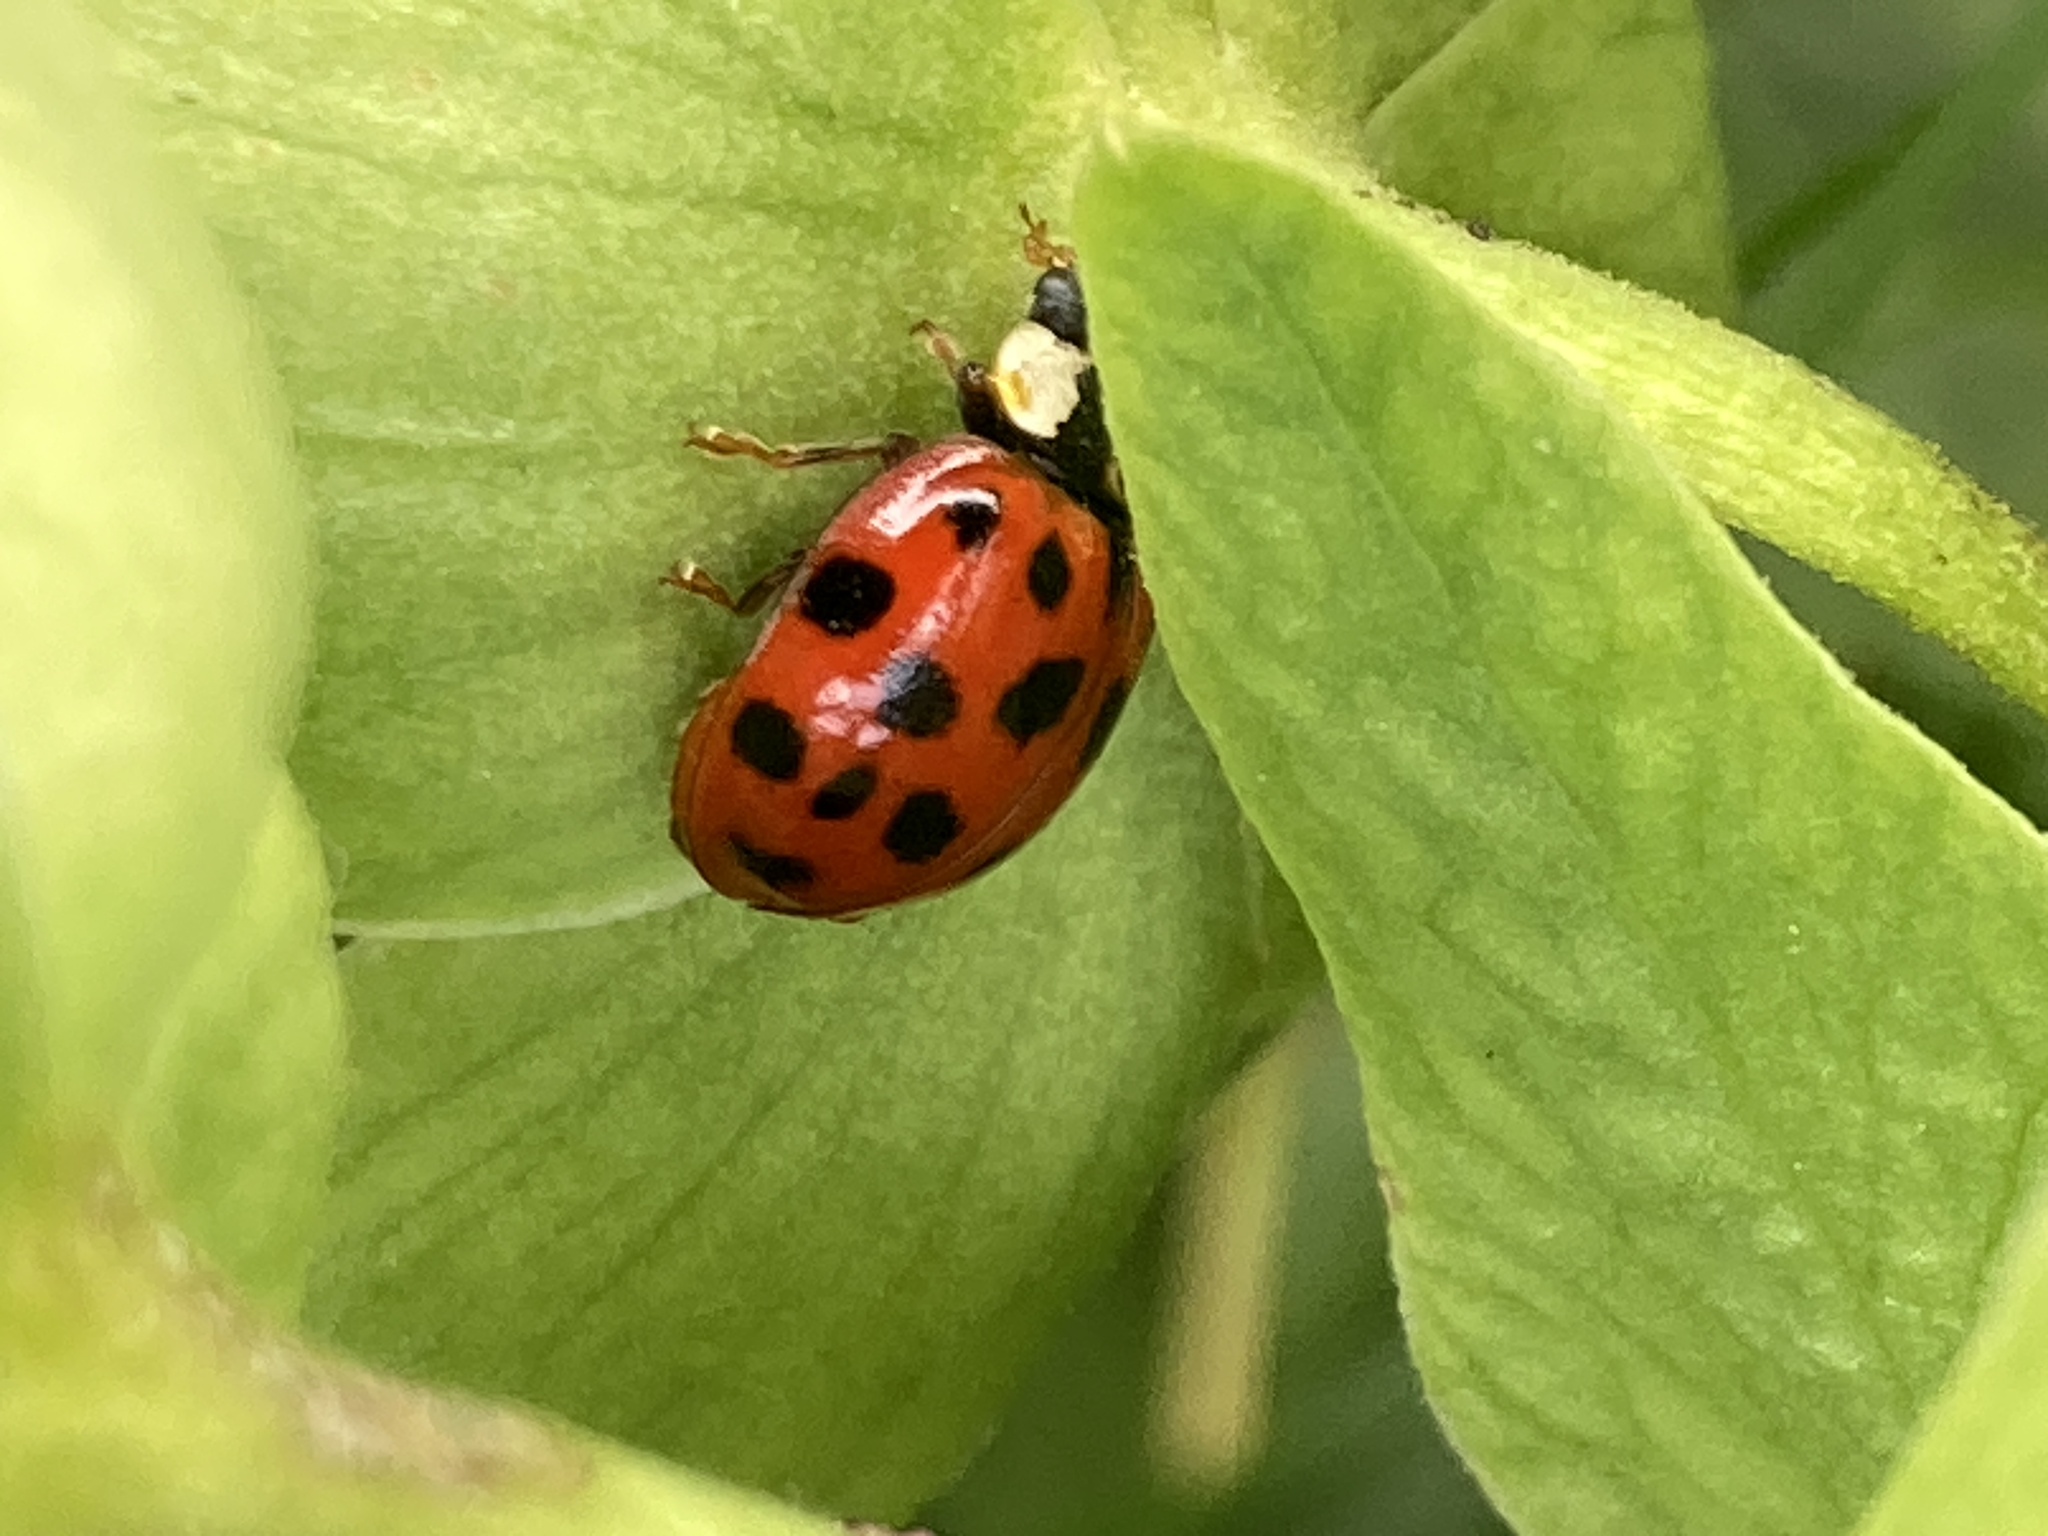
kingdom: Animalia
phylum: Arthropoda
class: Insecta
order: Coleoptera
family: Coccinellidae
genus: Harmonia
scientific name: Harmonia axyridis
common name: Harlequin ladybird
